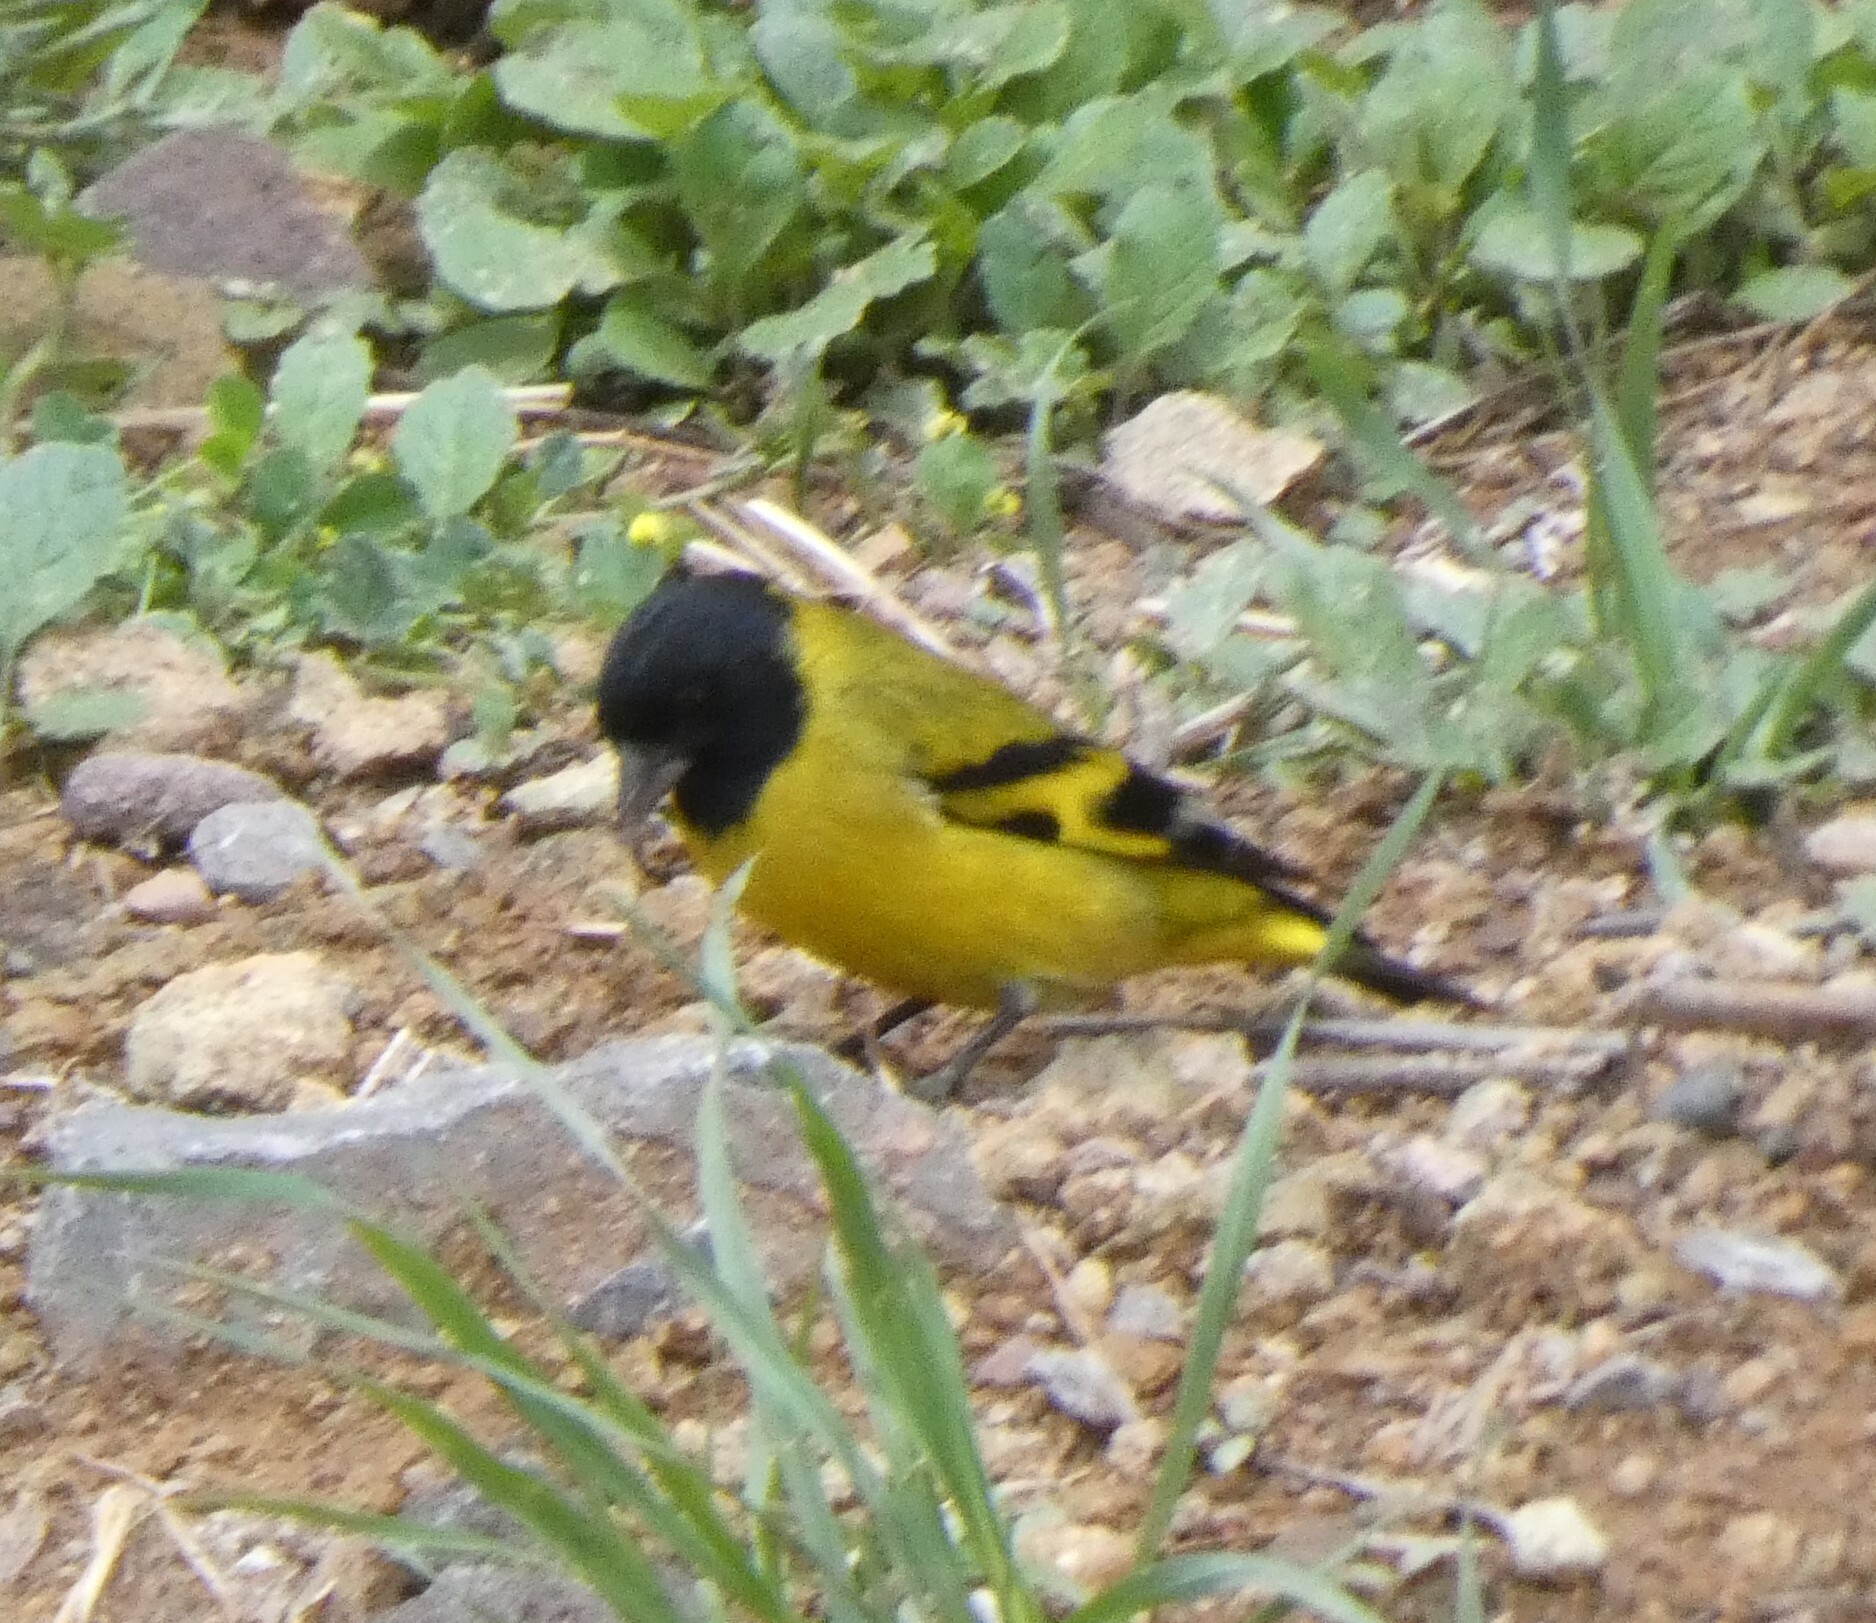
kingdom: Animalia
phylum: Chordata
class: Aves
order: Passeriformes
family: Fringillidae
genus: Spinus
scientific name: Spinus magellanicus
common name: Hooded siskin
